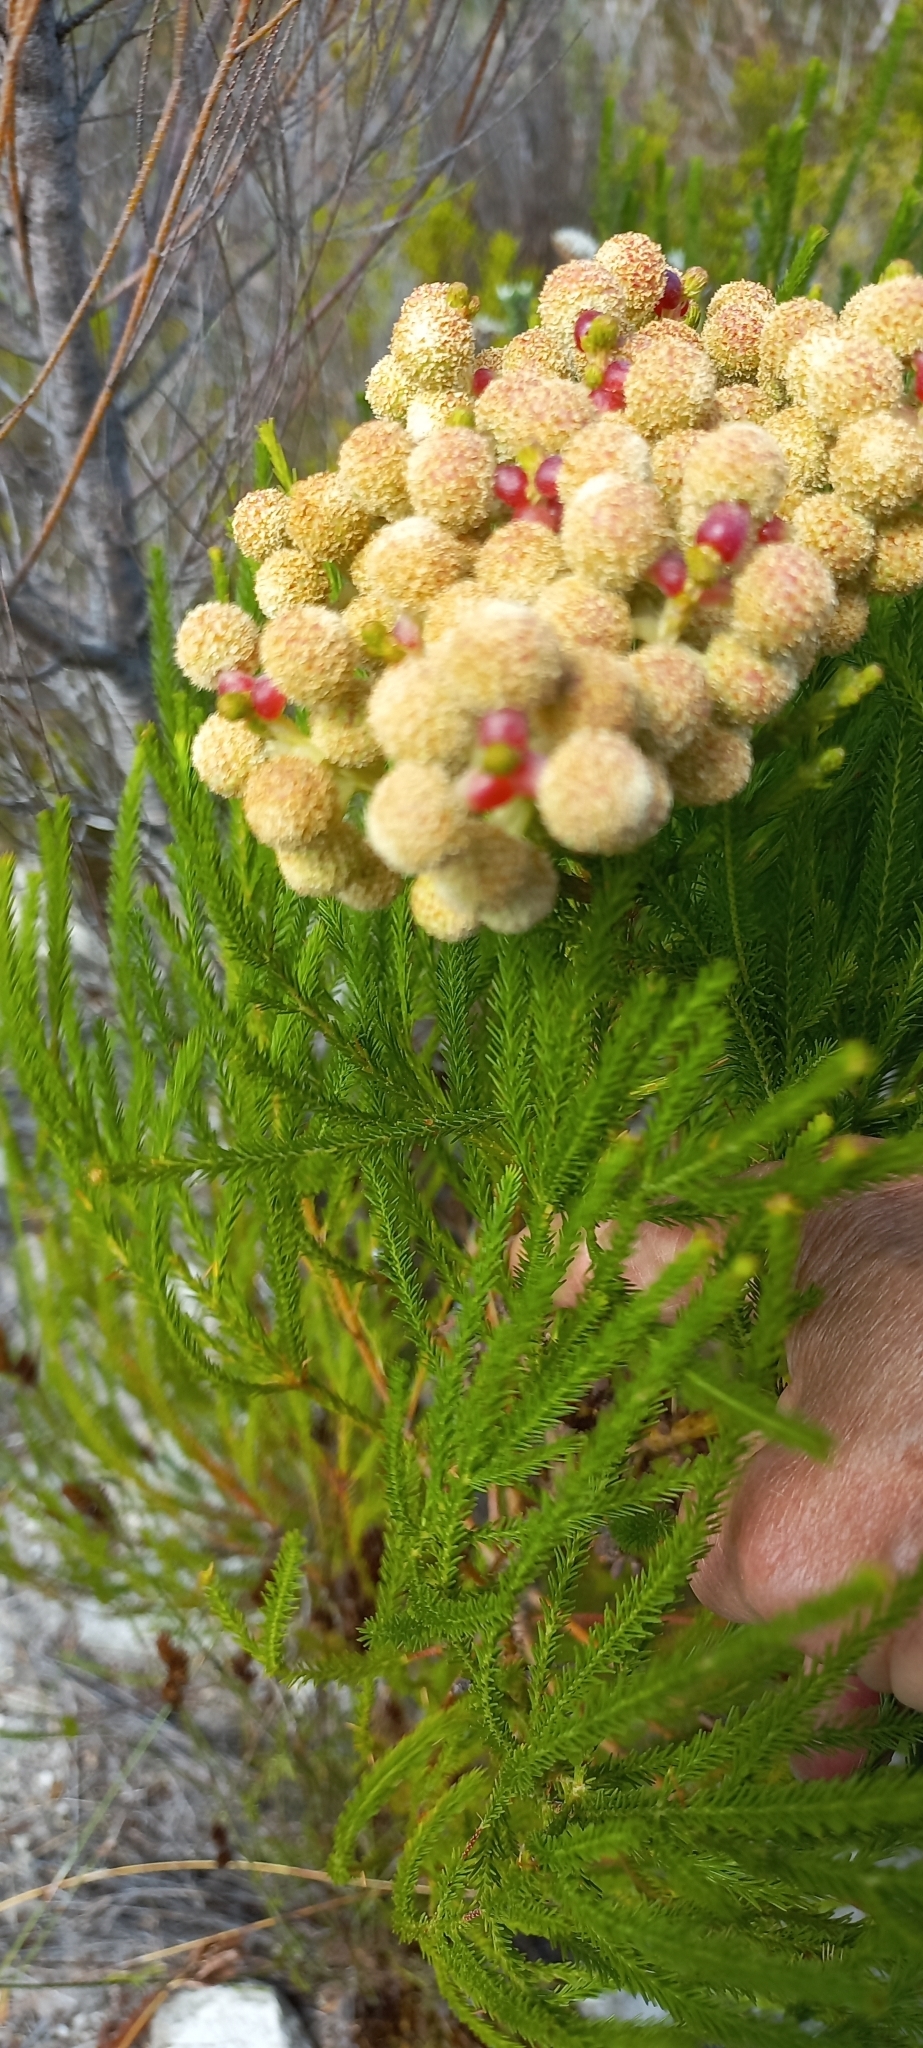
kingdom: Plantae
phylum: Tracheophyta
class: Magnoliopsida
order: Bruniales
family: Bruniaceae
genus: Berzelia
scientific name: Berzelia lanuginosa
